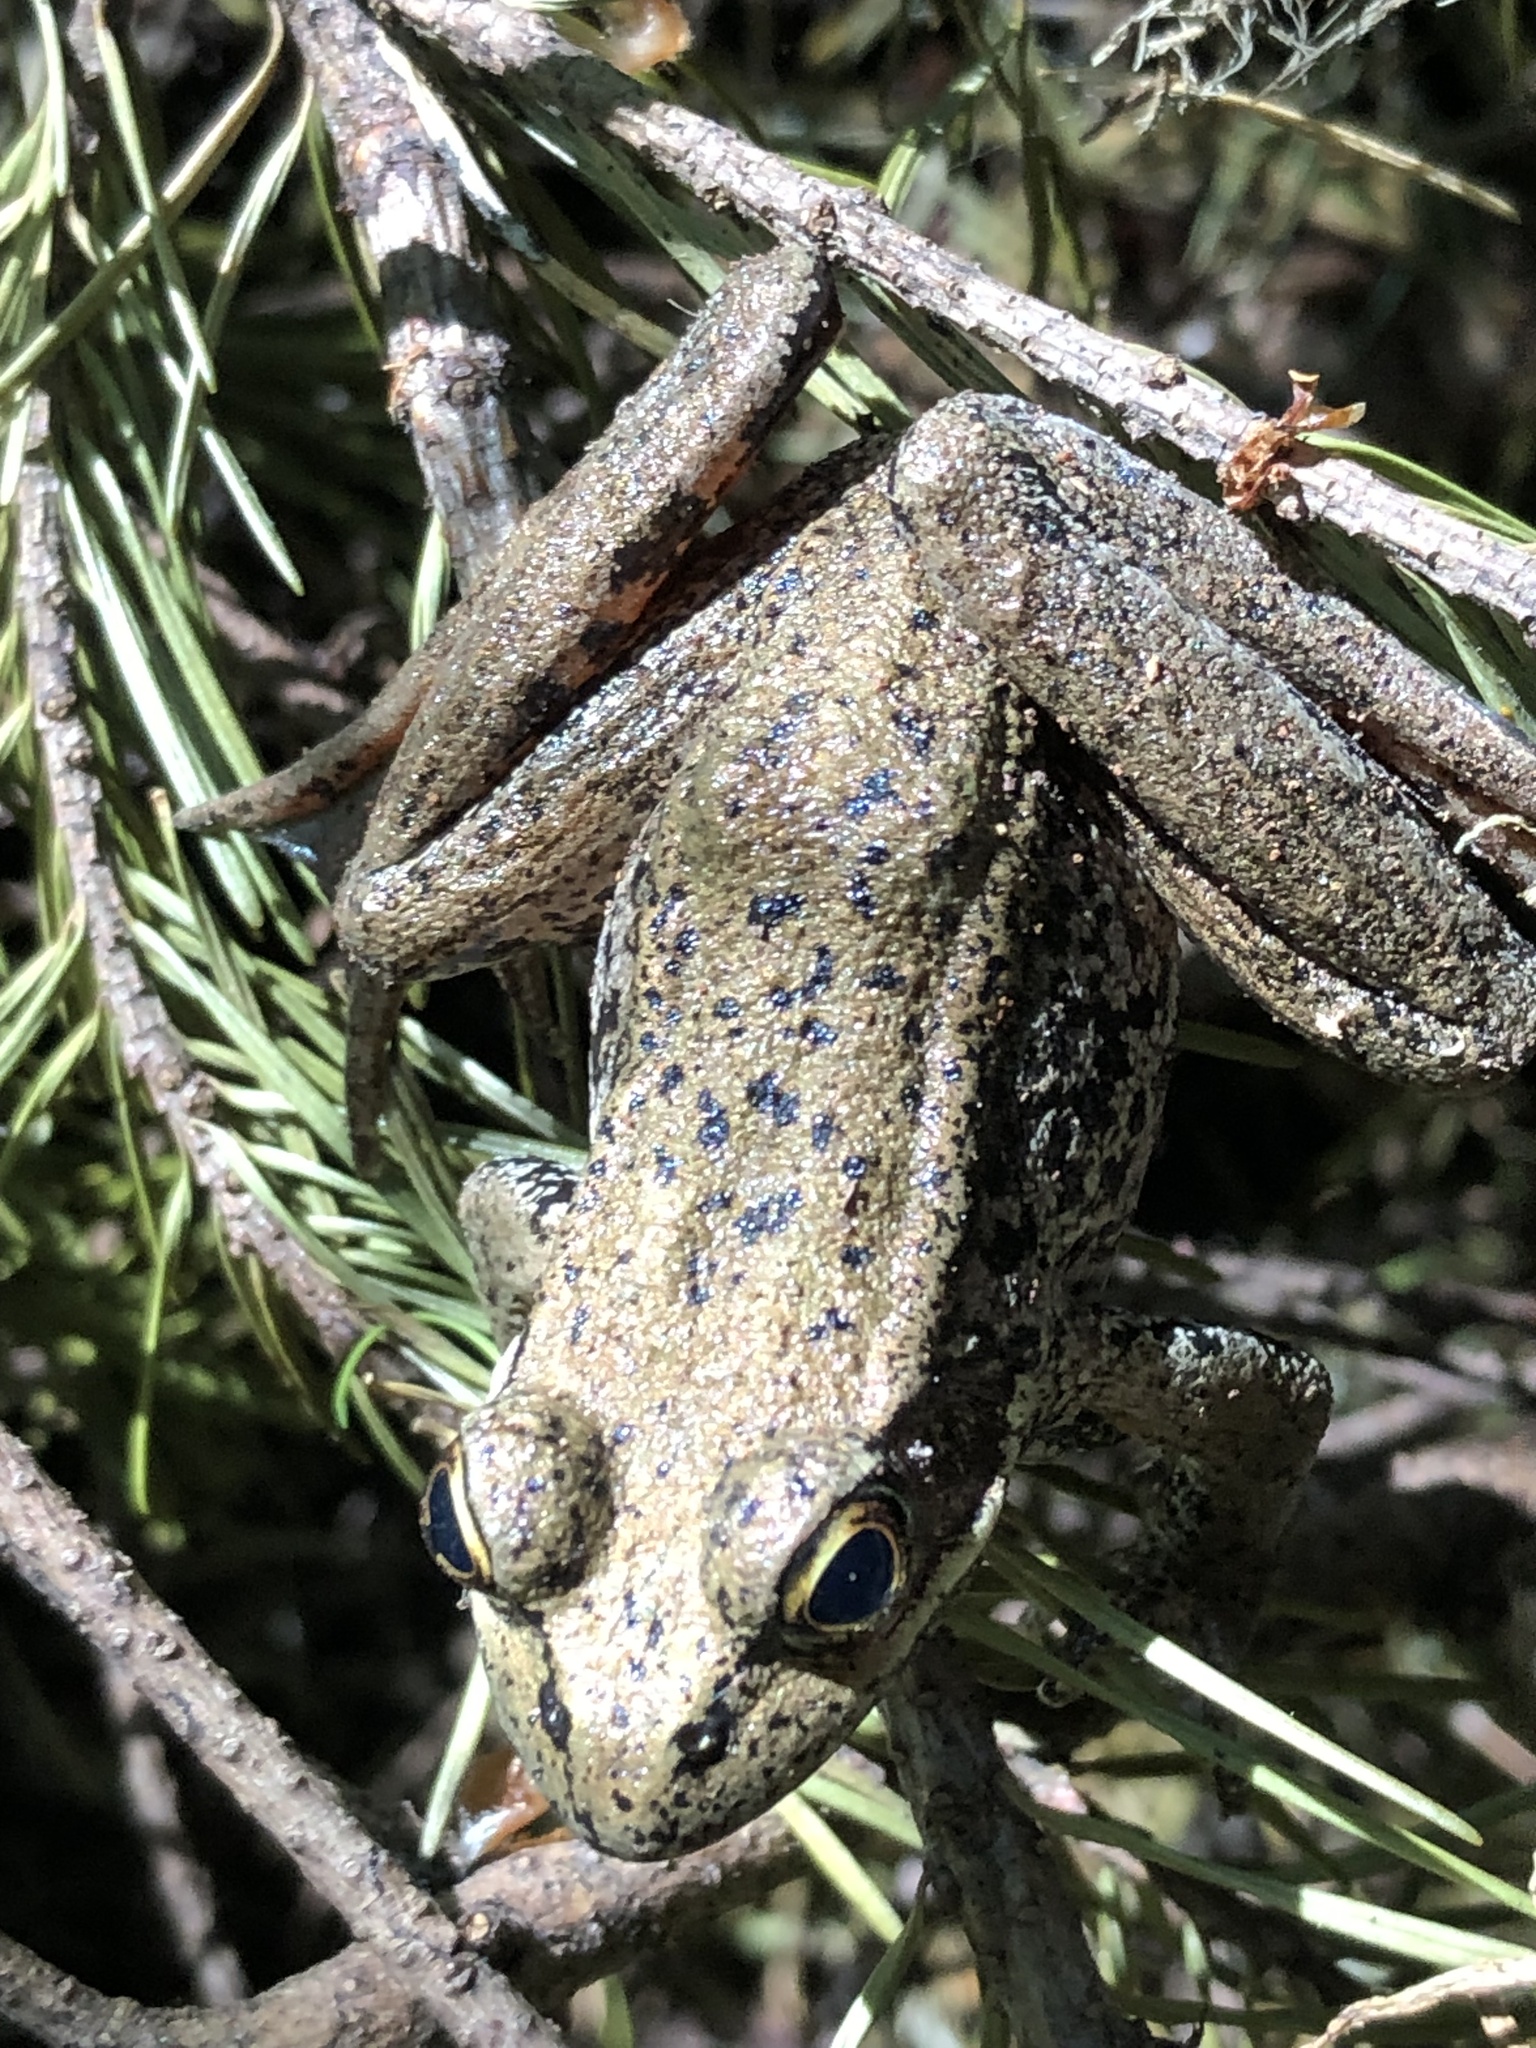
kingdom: Animalia
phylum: Chordata
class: Amphibia
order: Anura
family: Ranidae
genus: Rana
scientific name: Rana aurora
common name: Red-legged frog
